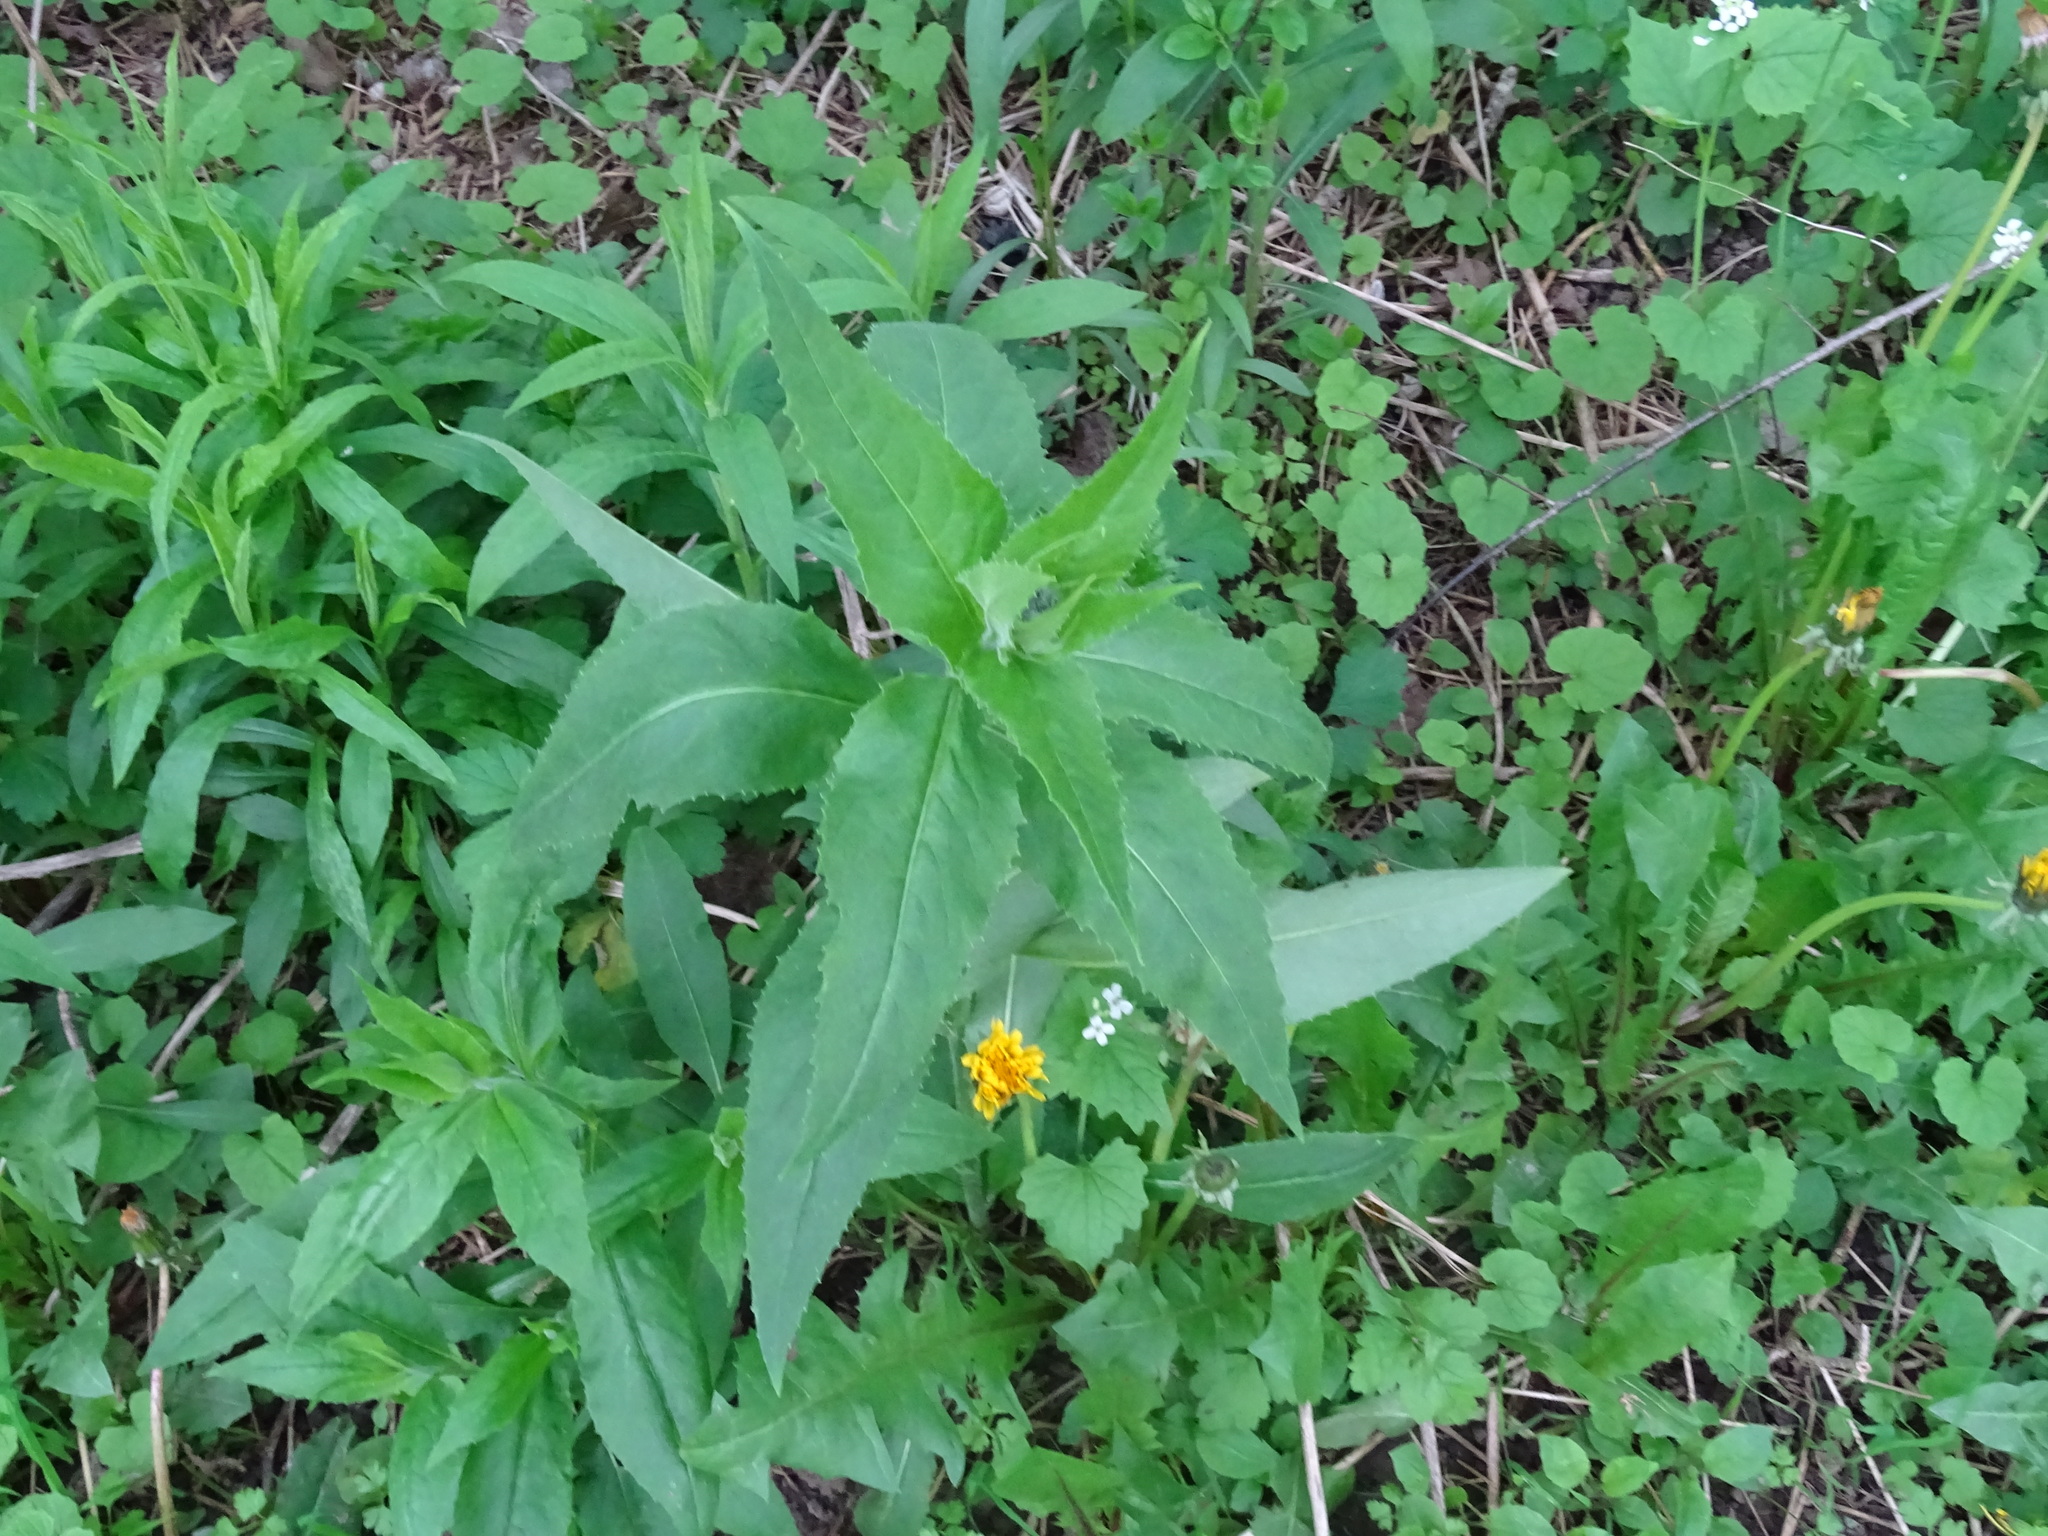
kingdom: Plantae
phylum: Tracheophyta
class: Magnoliopsida
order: Brassicales
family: Brassicaceae
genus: Hesperis
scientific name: Hesperis matronalis
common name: Dame's-violet
